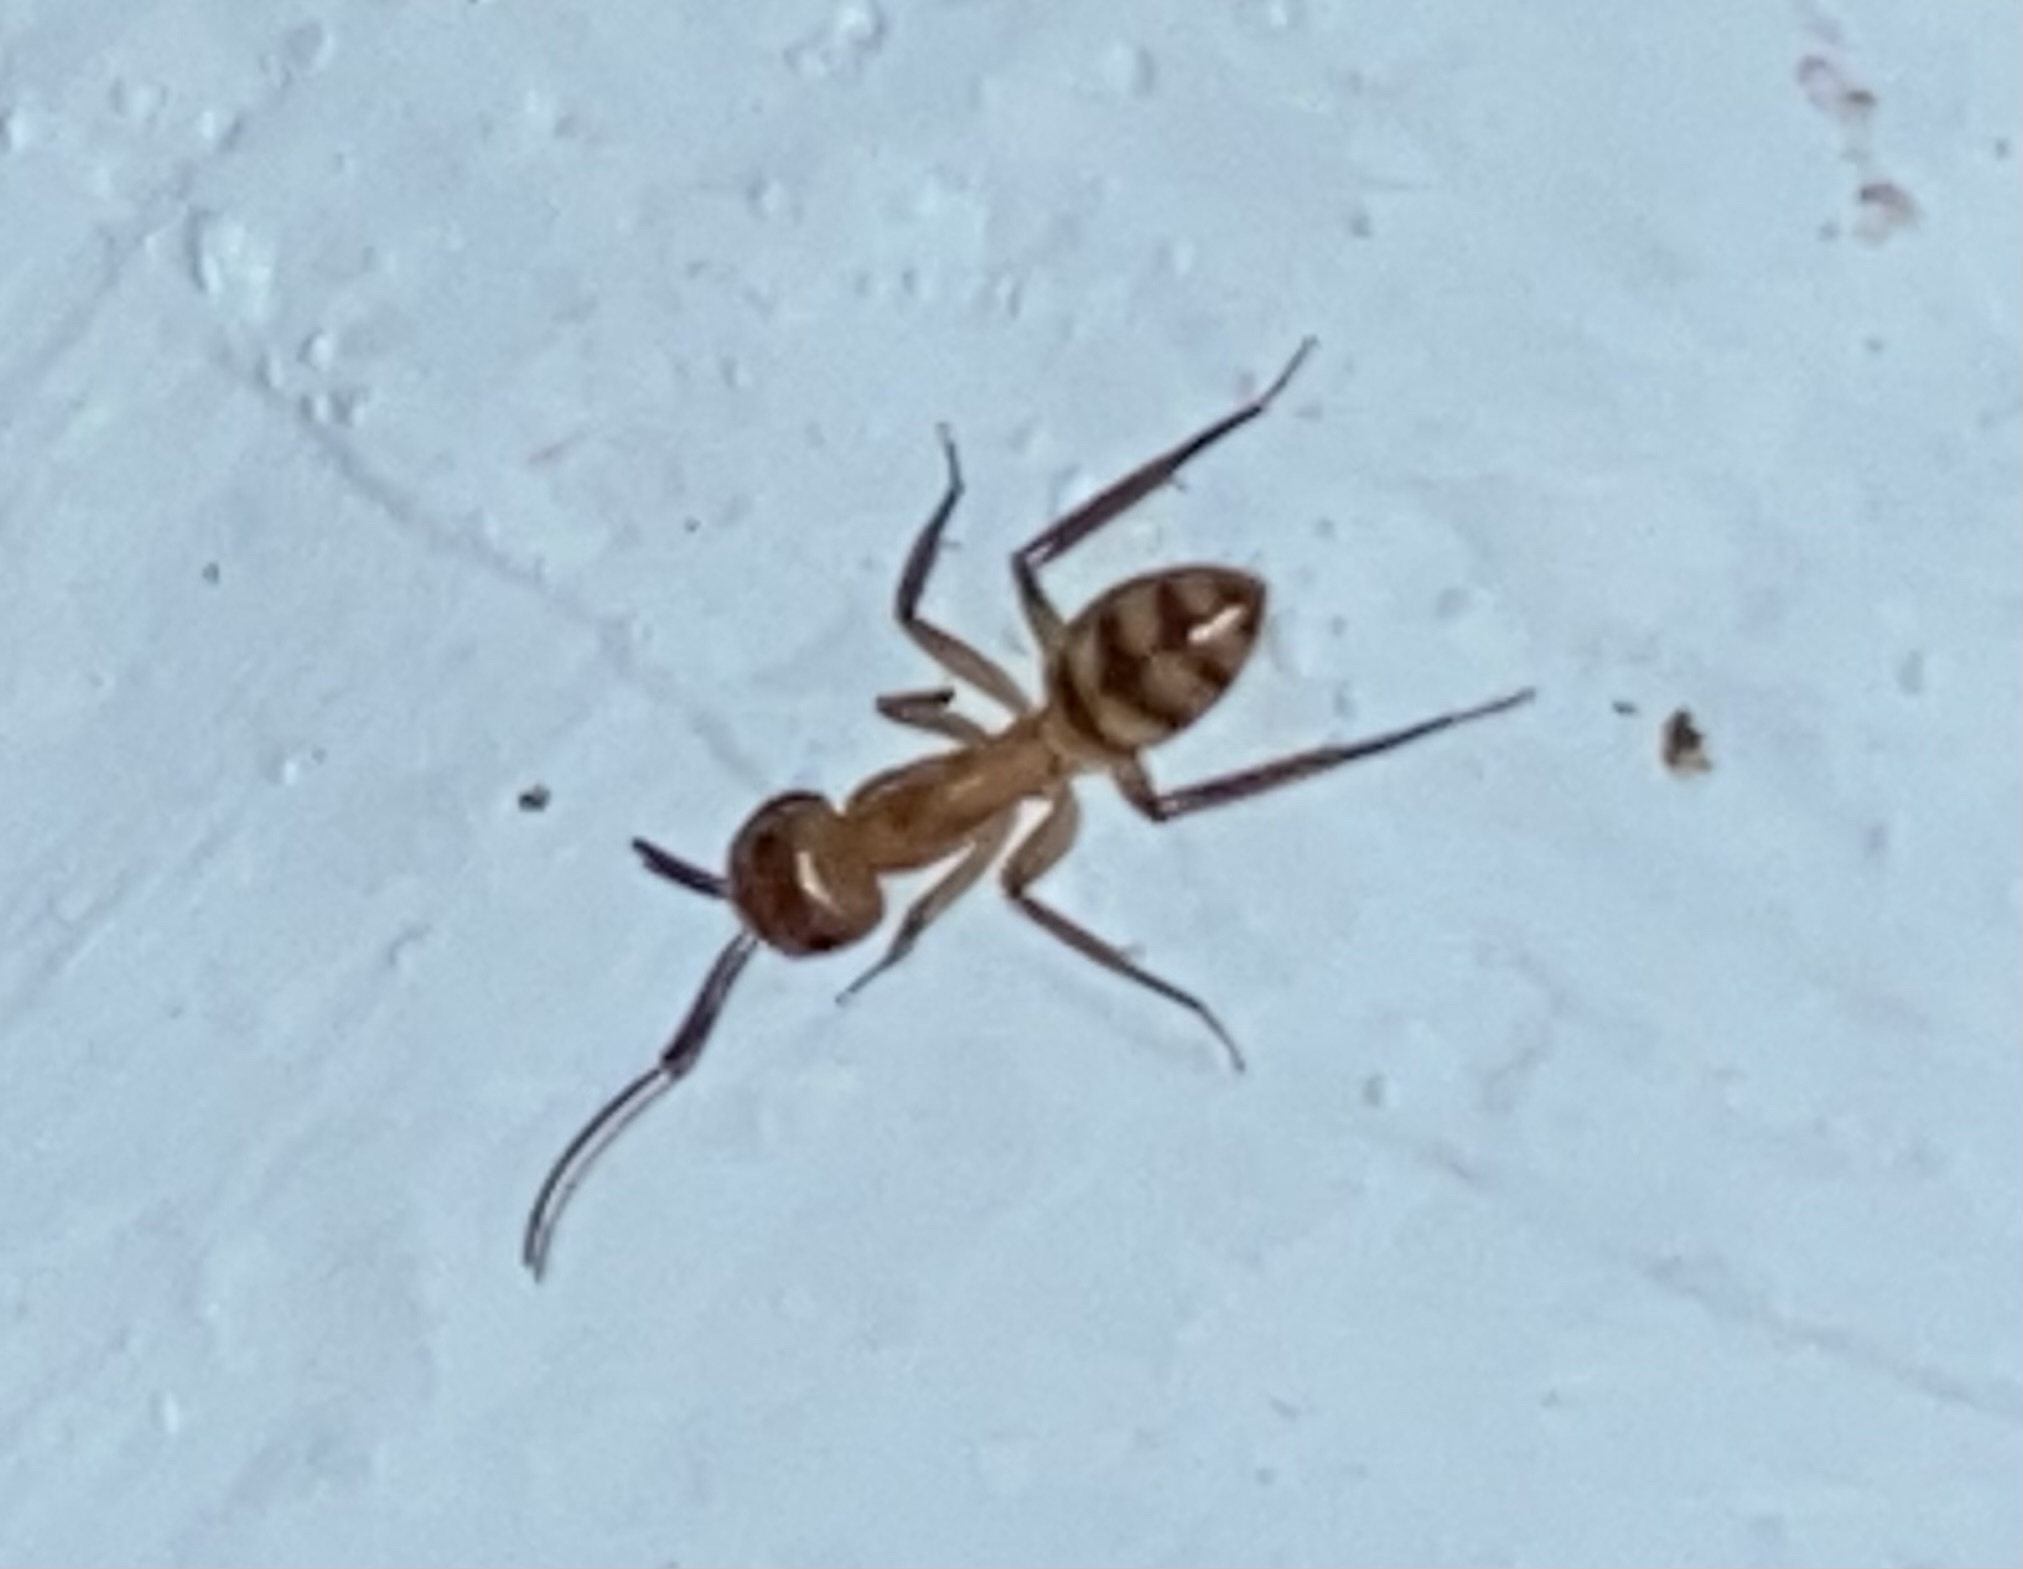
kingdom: Animalia
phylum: Arthropoda
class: Insecta
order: Hymenoptera
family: Formicidae
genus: Camponotus
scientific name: Camponotus
